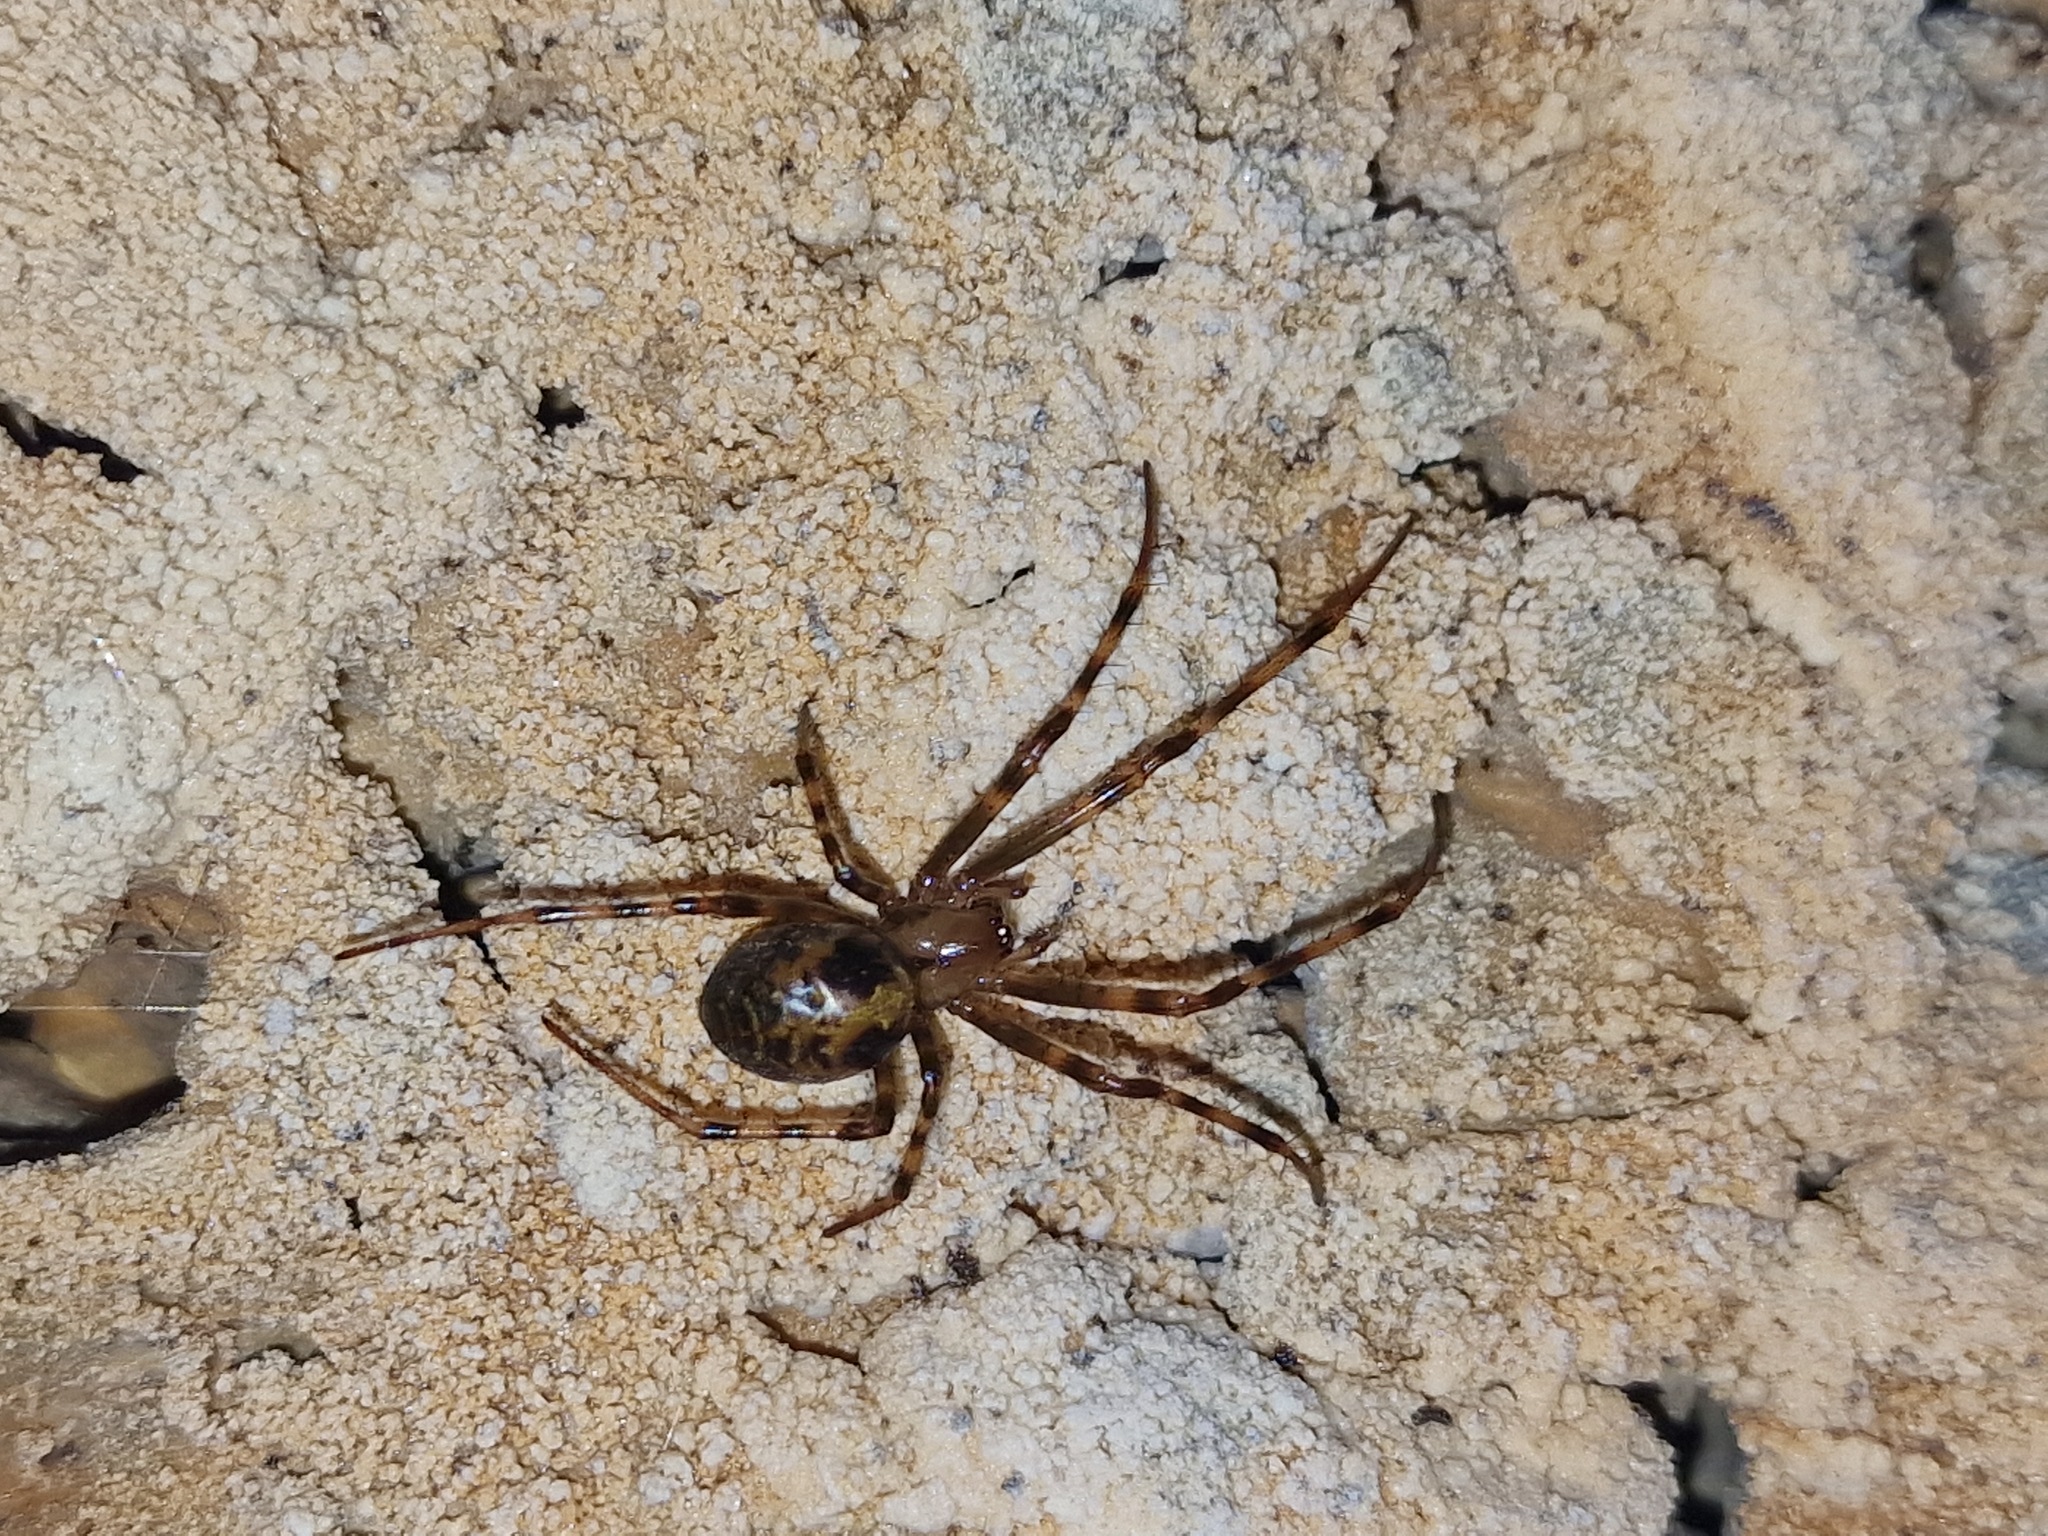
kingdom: Animalia
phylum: Arthropoda
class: Arachnida
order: Araneae
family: Tetragnathidae
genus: Meta
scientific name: Meta menardi
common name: Cave spider
